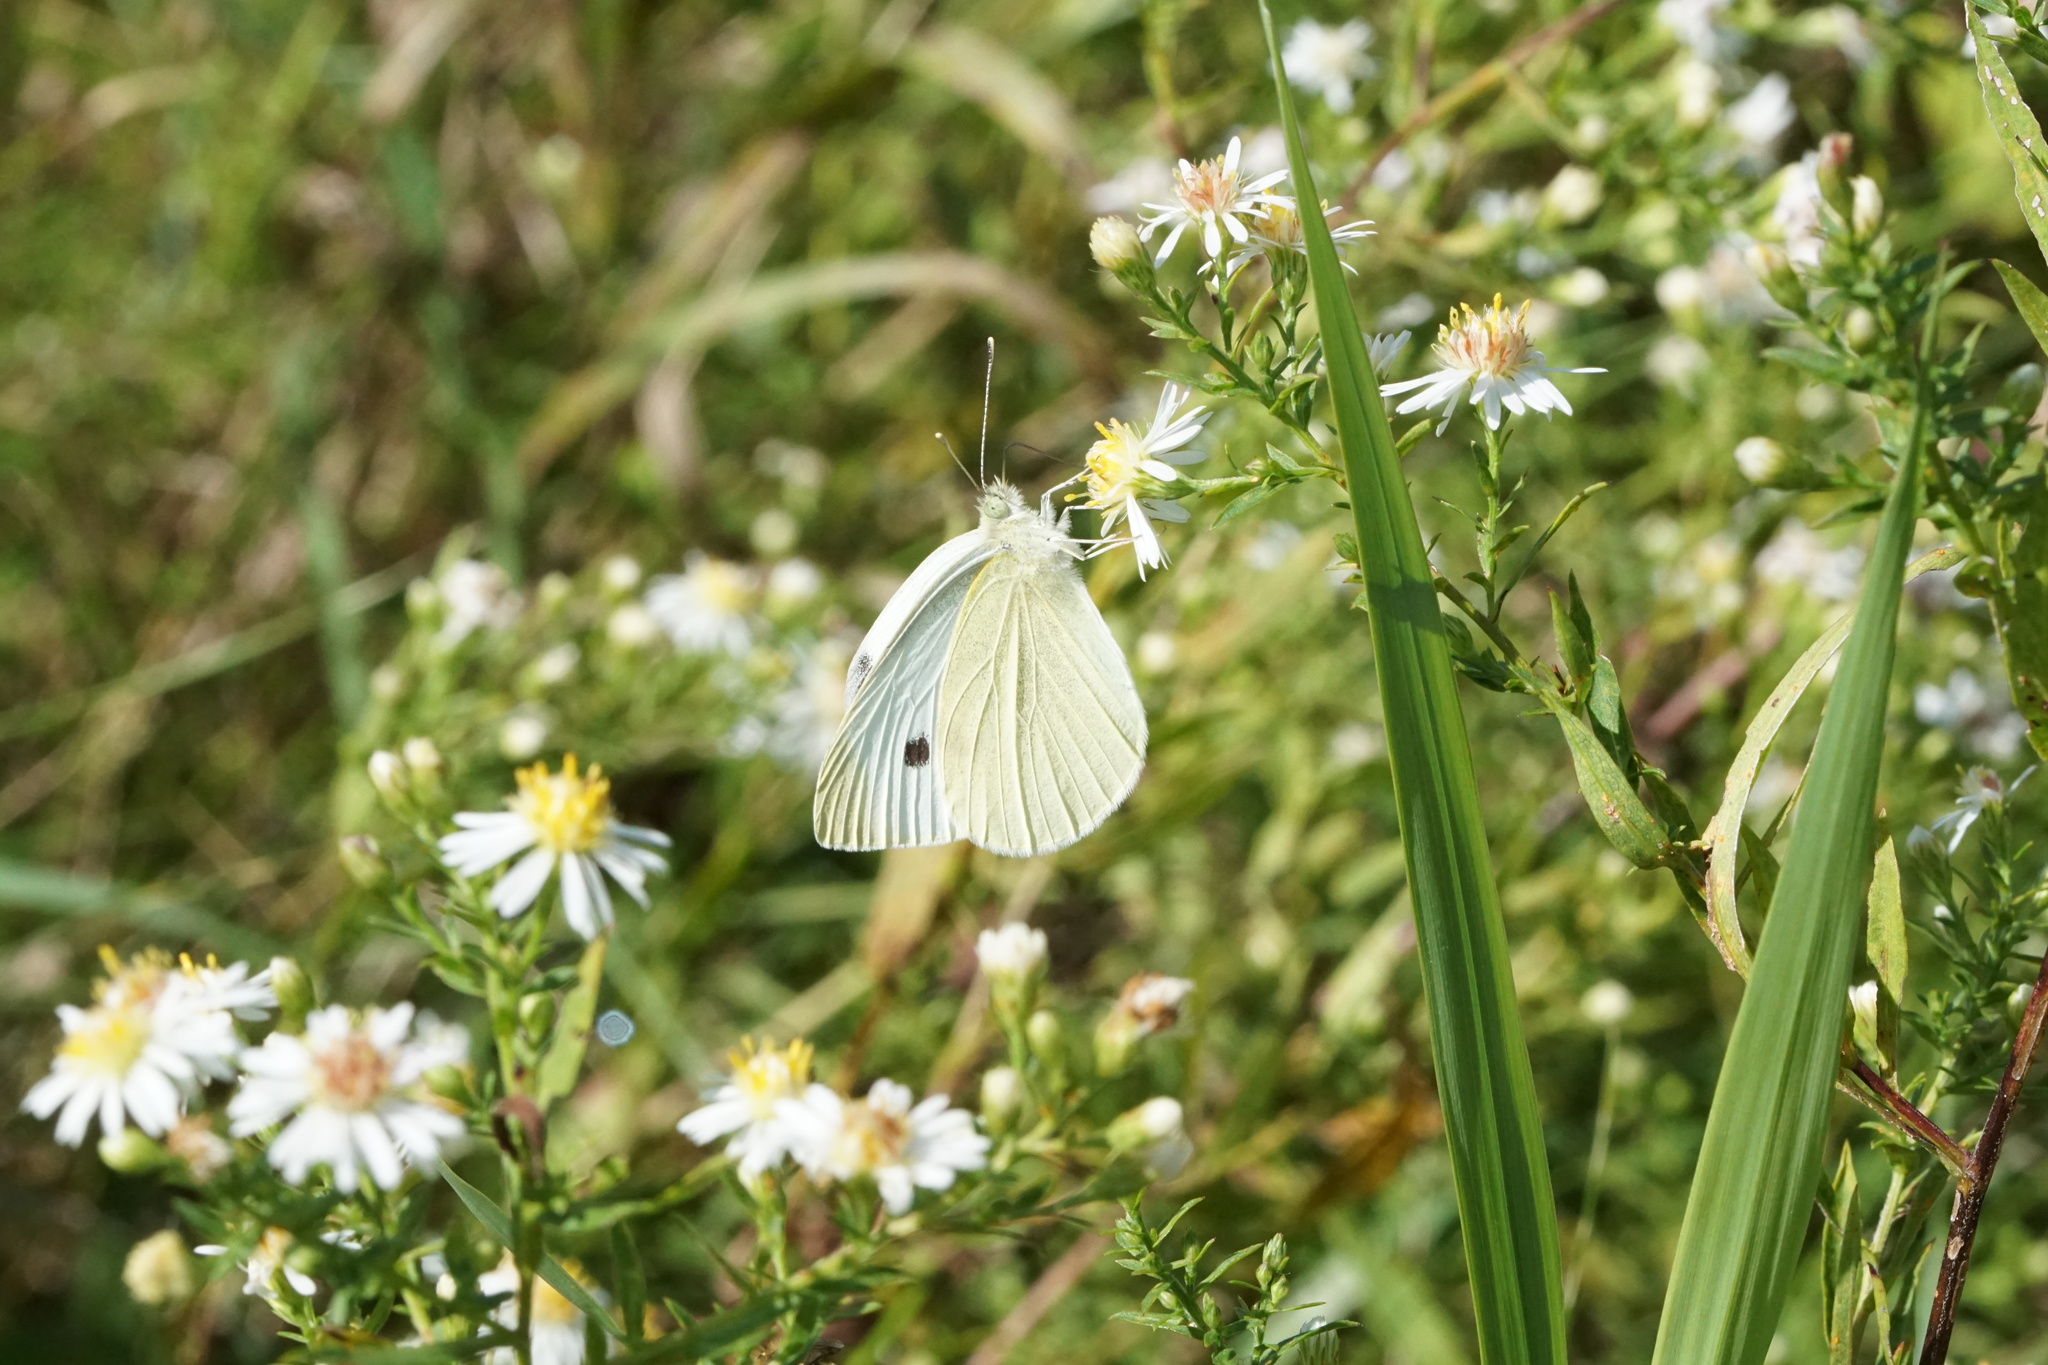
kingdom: Animalia
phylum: Arthropoda
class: Insecta
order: Lepidoptera
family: Pieridae
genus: Pieris
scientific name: Pieris rapae
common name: Small white
